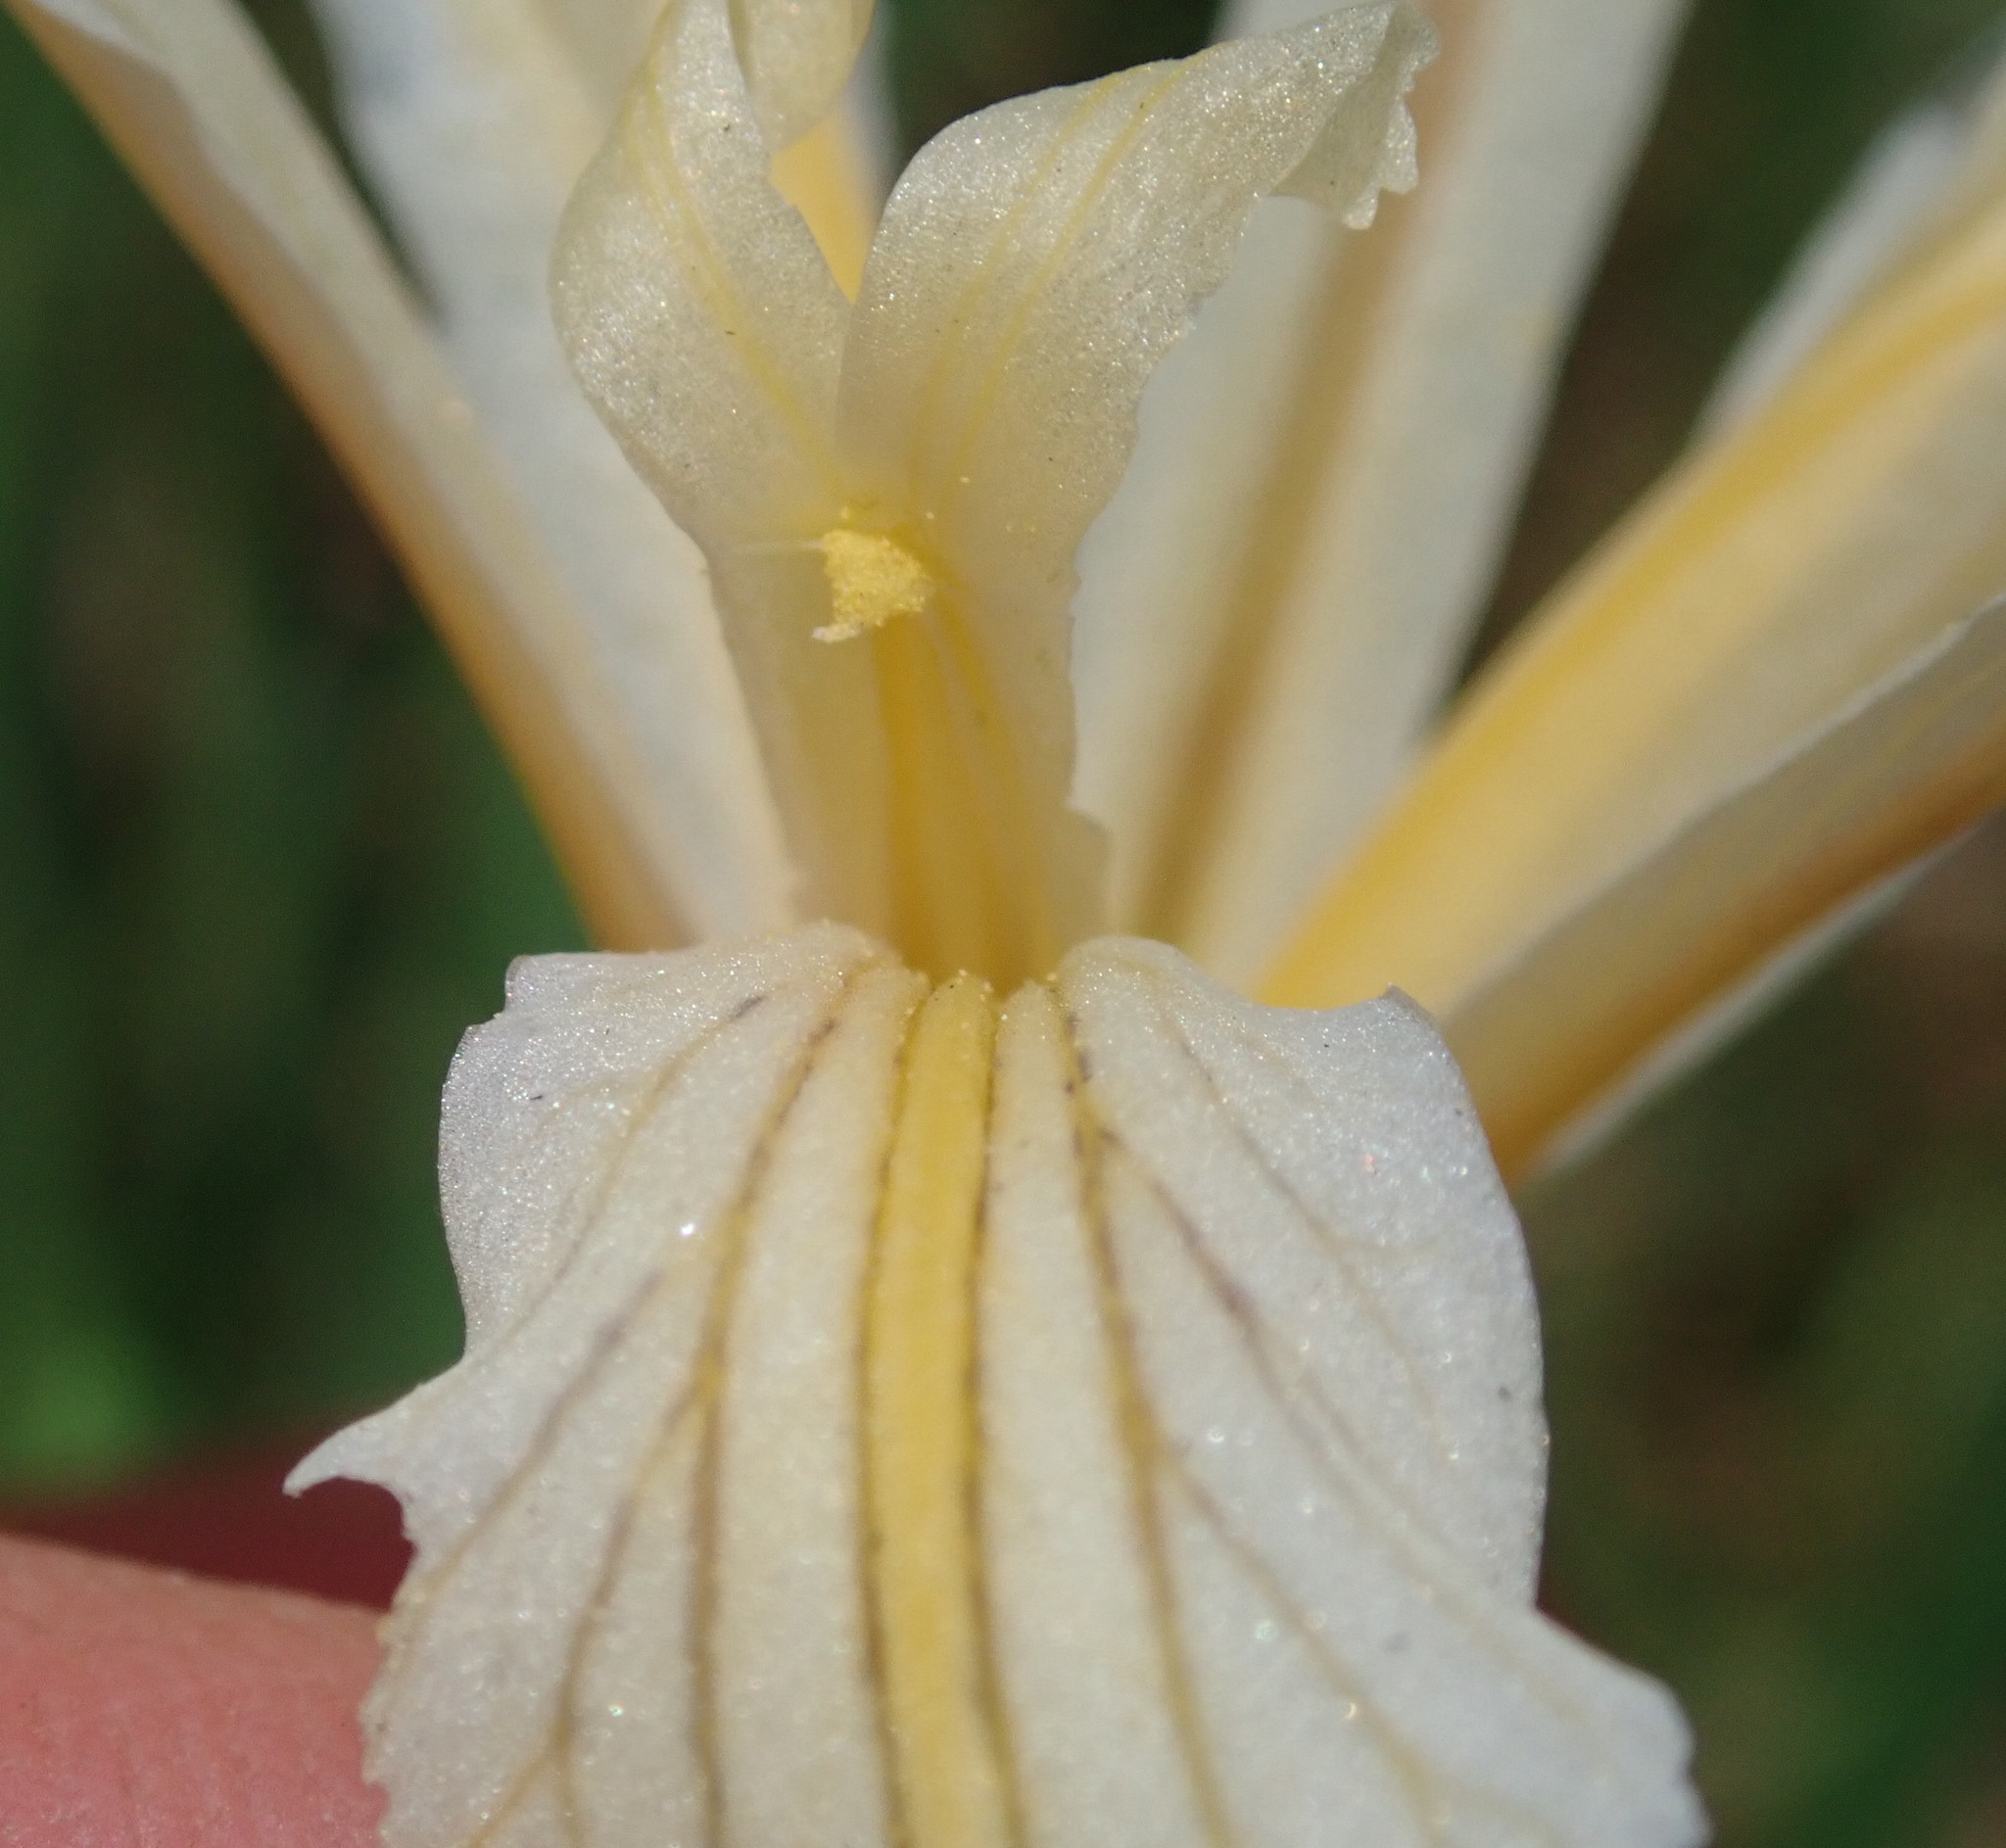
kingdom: Plantae
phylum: Tracheophyta
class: Liliopsida
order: Asparagales
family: Iridaceae
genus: Iris
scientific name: Iris hartwegii
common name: Sierra iris
